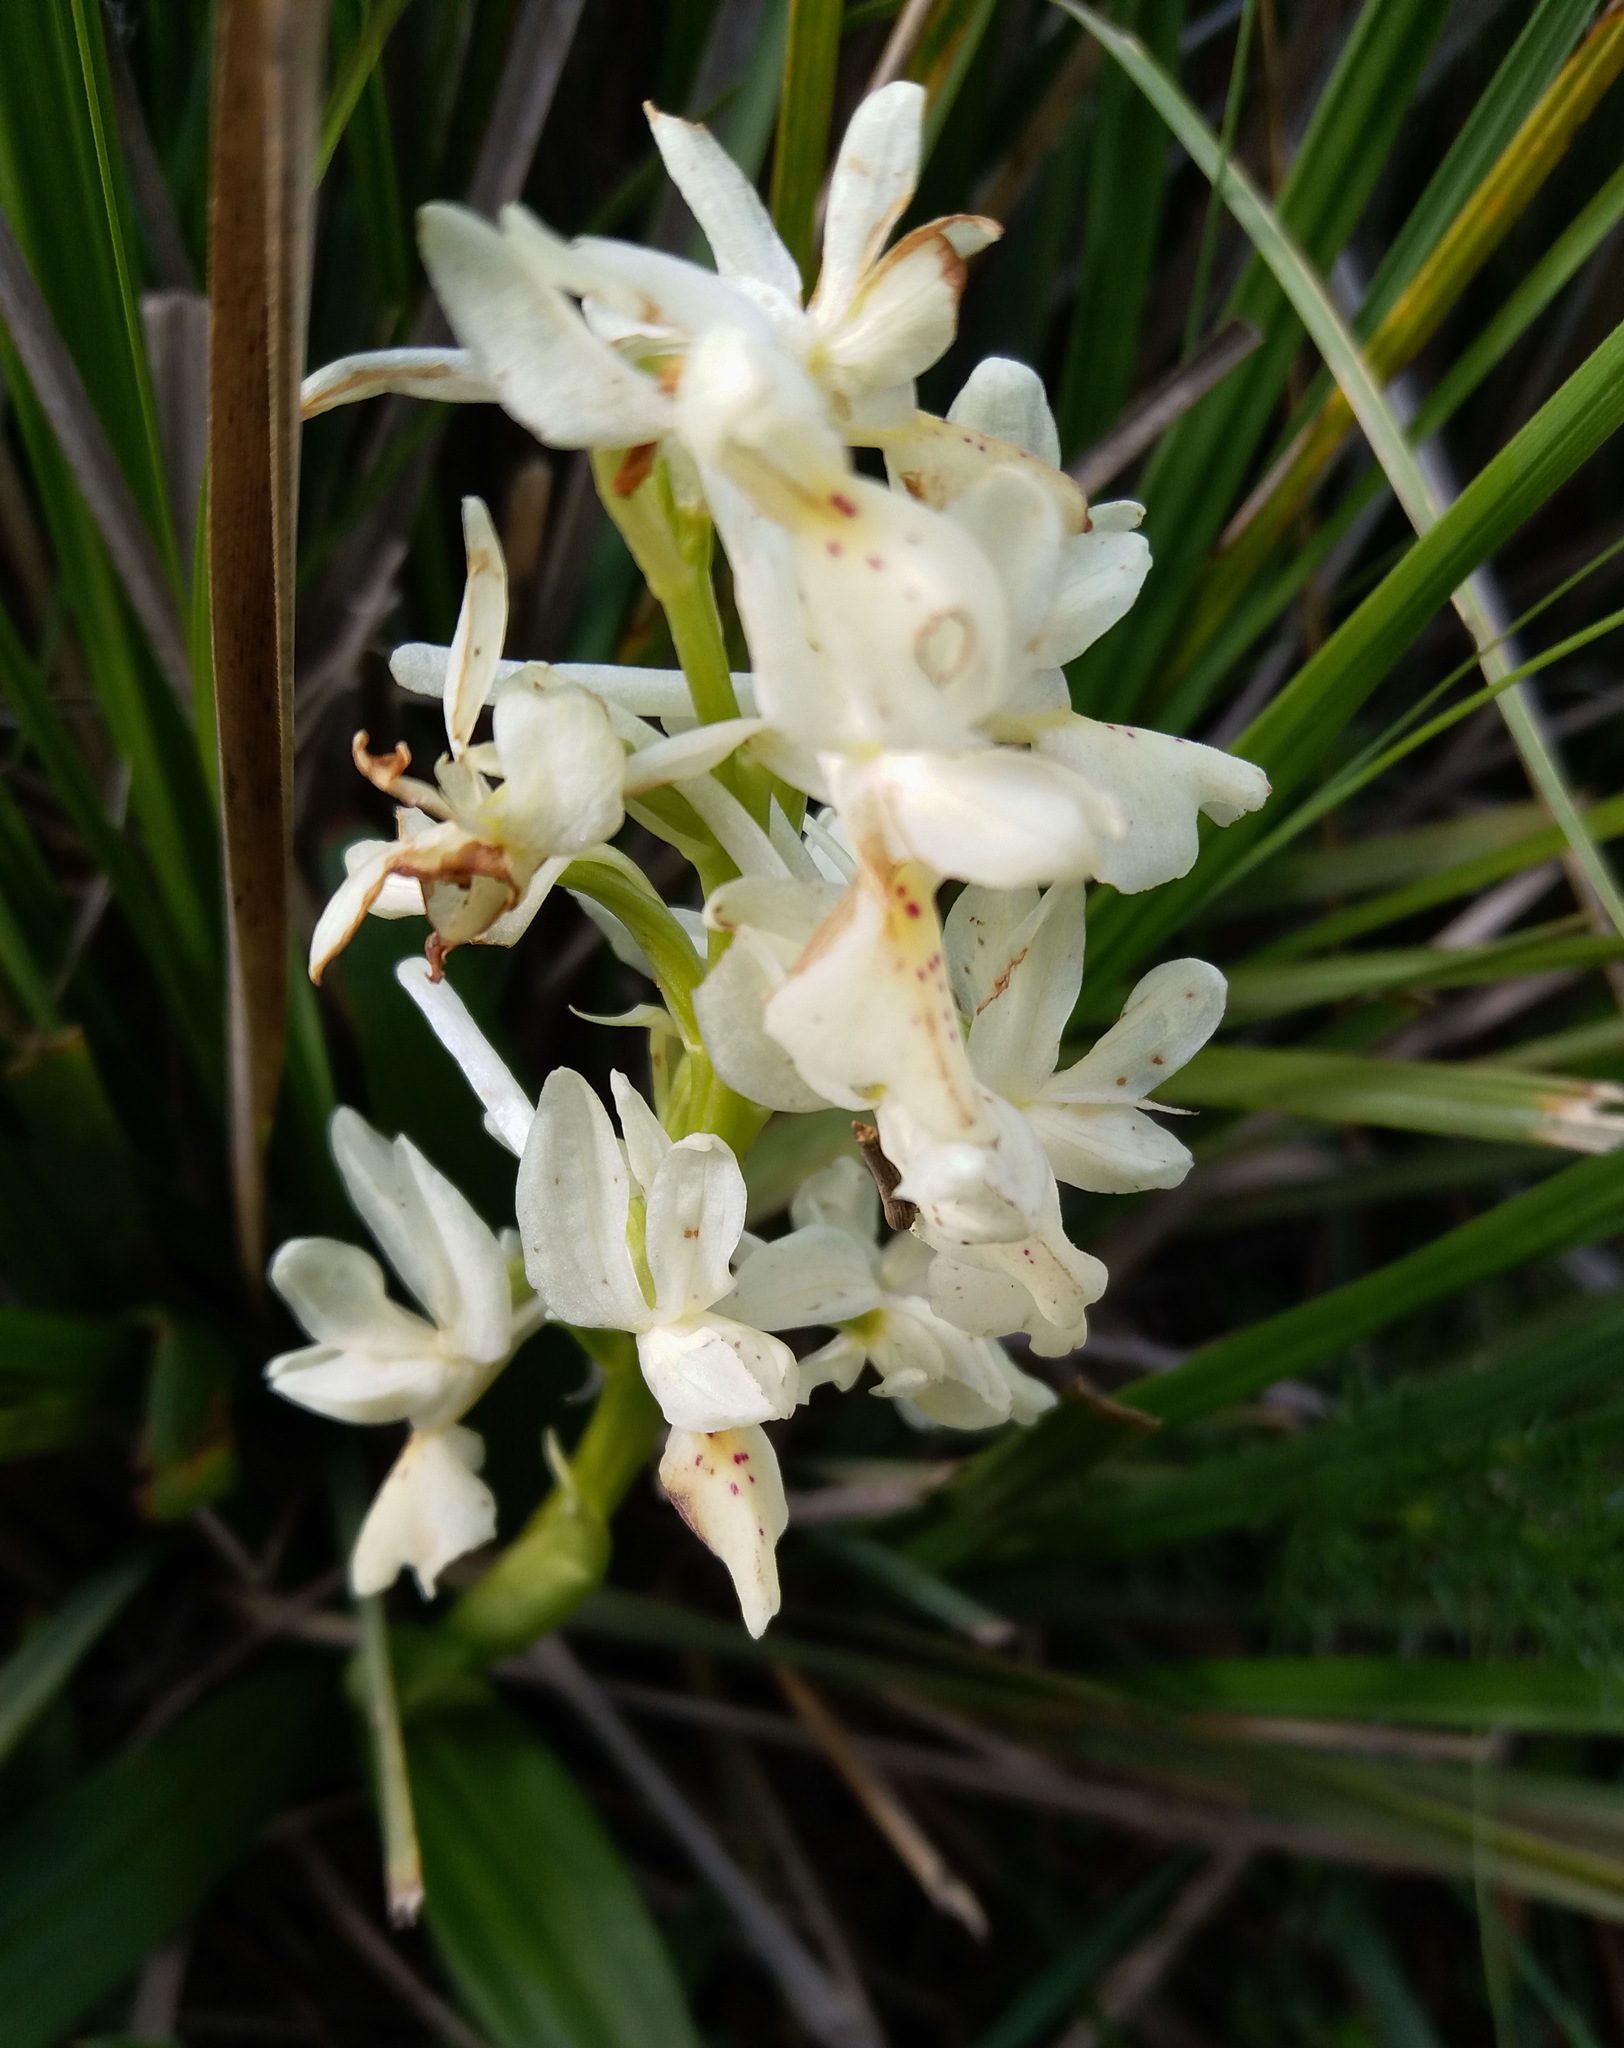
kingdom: Plantae
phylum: Tracheophyta
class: Liliopsida
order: Asparagales
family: Orchidaceae
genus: Orchis
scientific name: Orchis laeta
